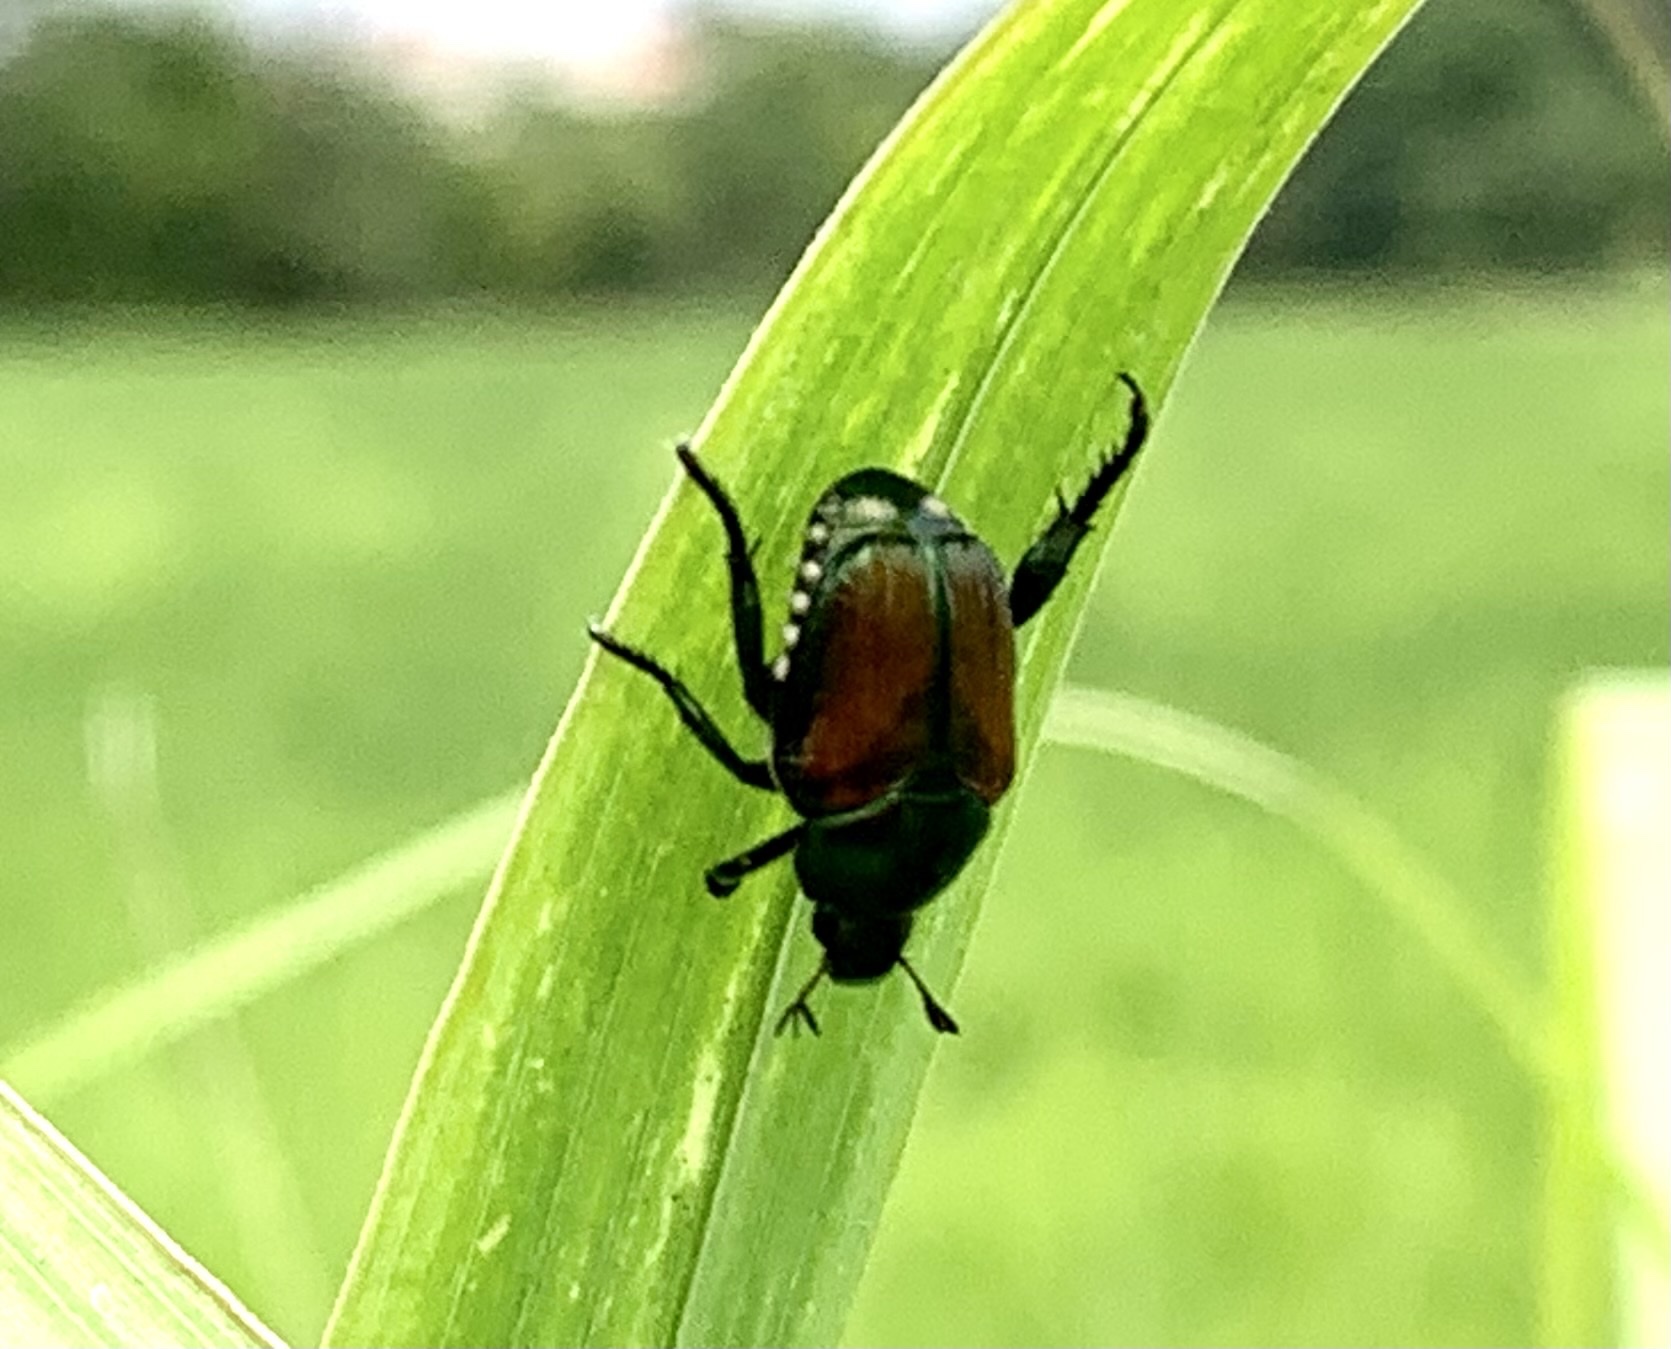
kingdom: Animalia
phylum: Arthropoda
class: Insecta
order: Coleoptera
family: Scarabaeidae
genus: Popillia
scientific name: Popillia japonica
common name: Japanese beetle
